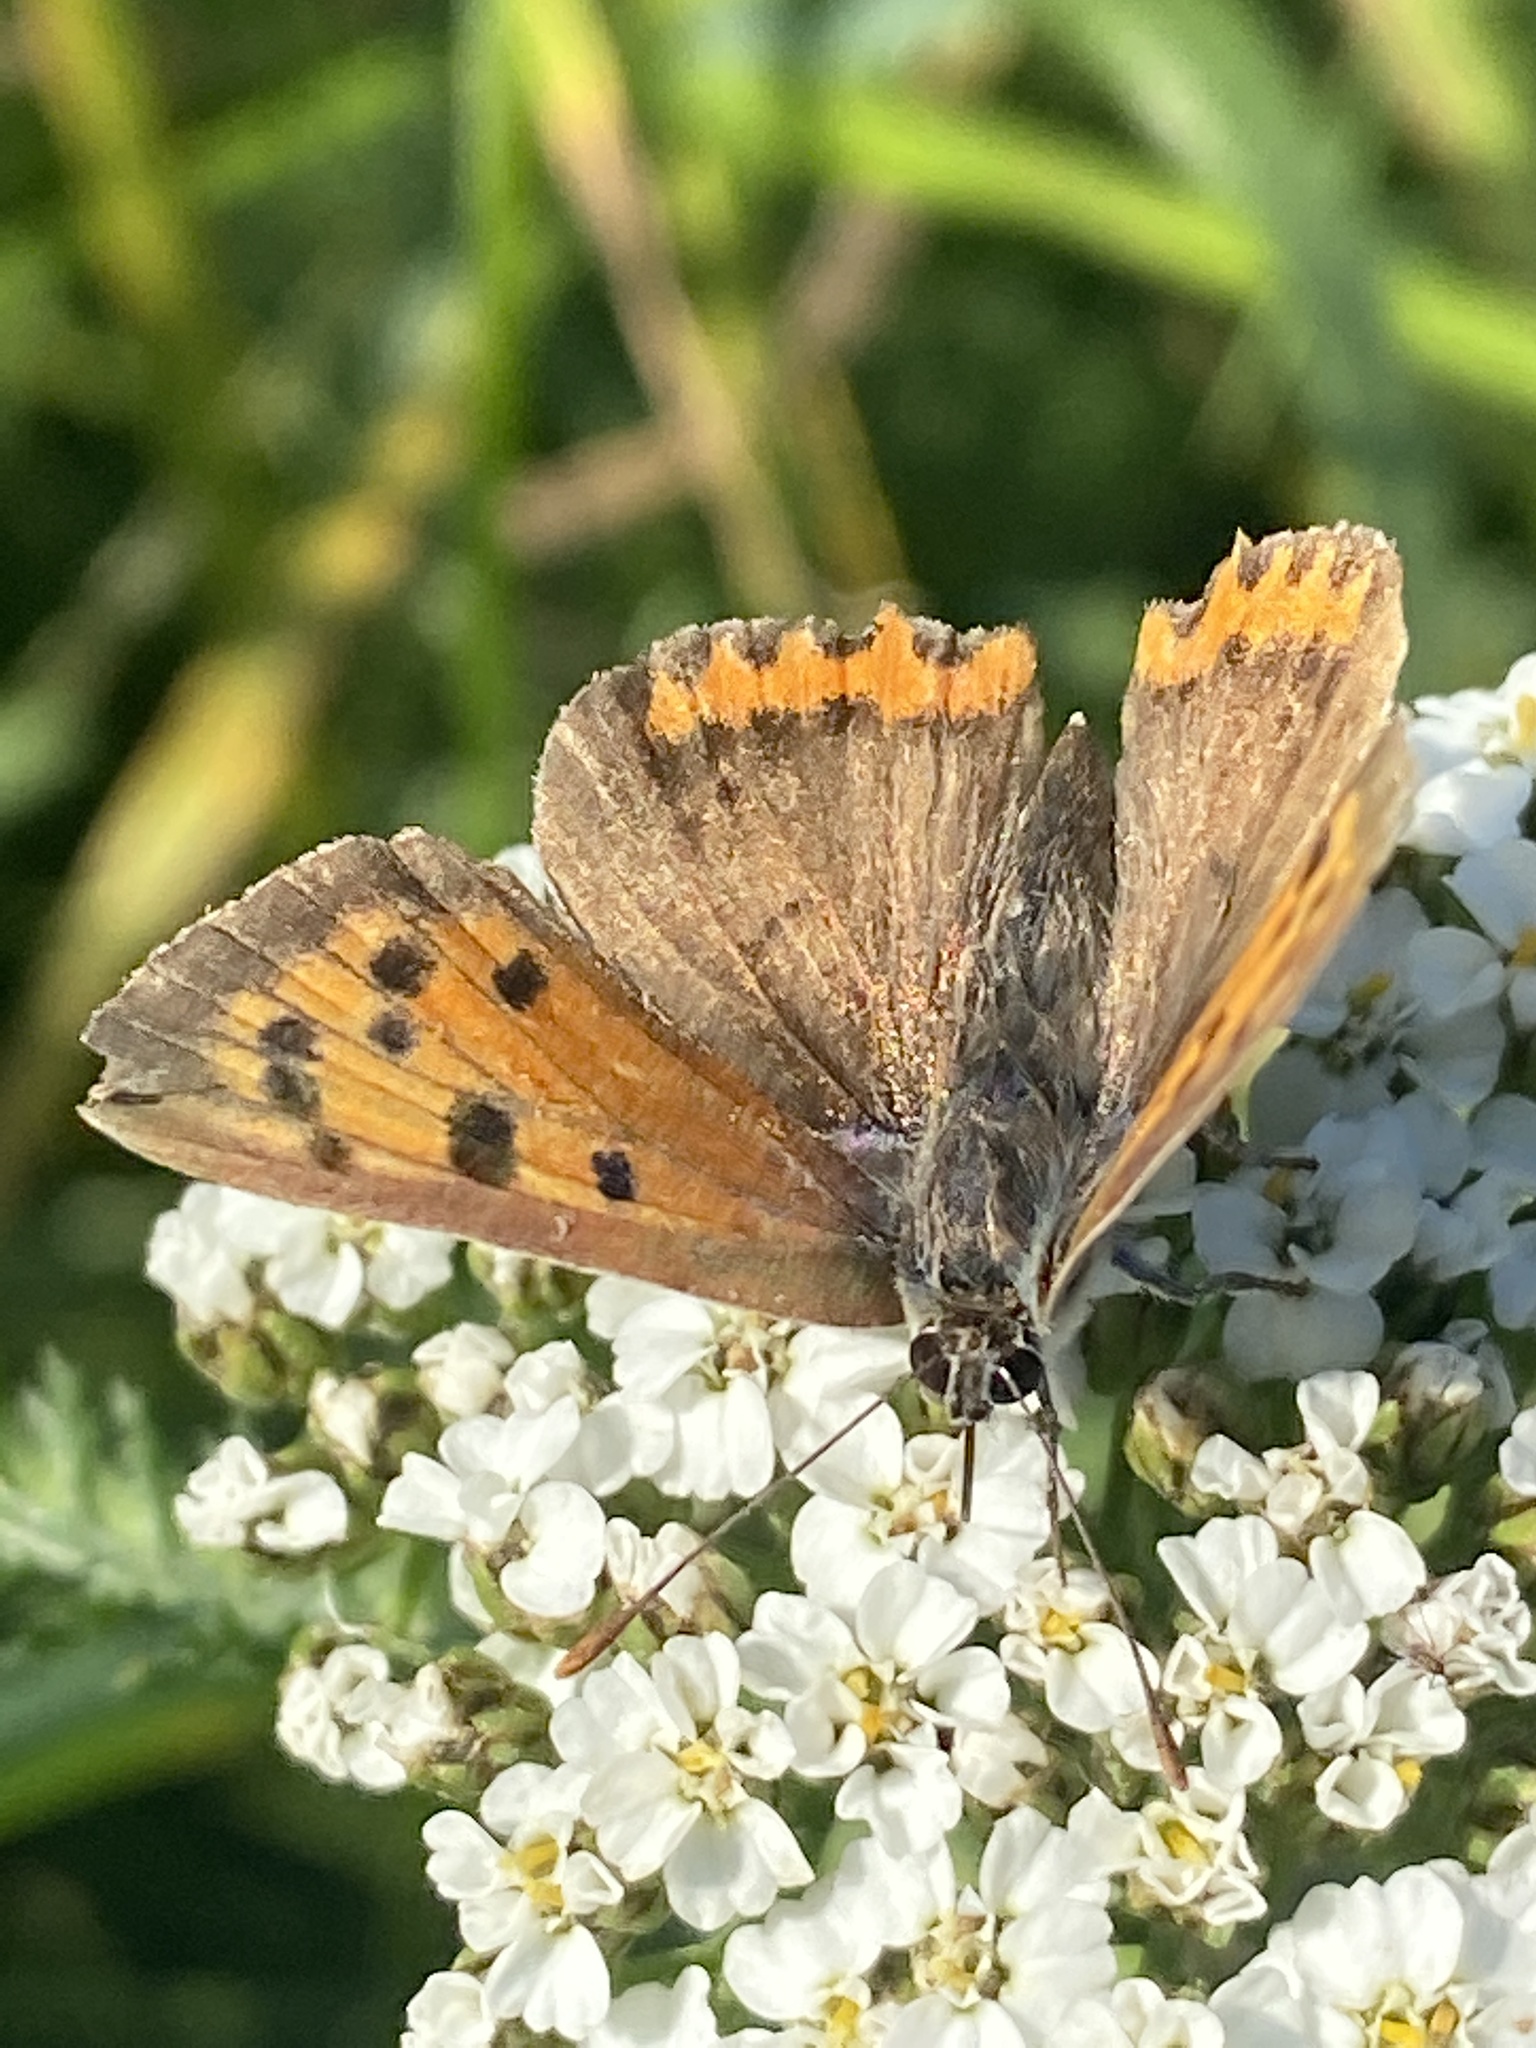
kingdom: Animalia
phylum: Arthropoda
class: Insecta
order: Lepidoptera
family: Lycaenidae
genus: Lycaena
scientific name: Lycaena phlaeas
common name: Small copper
